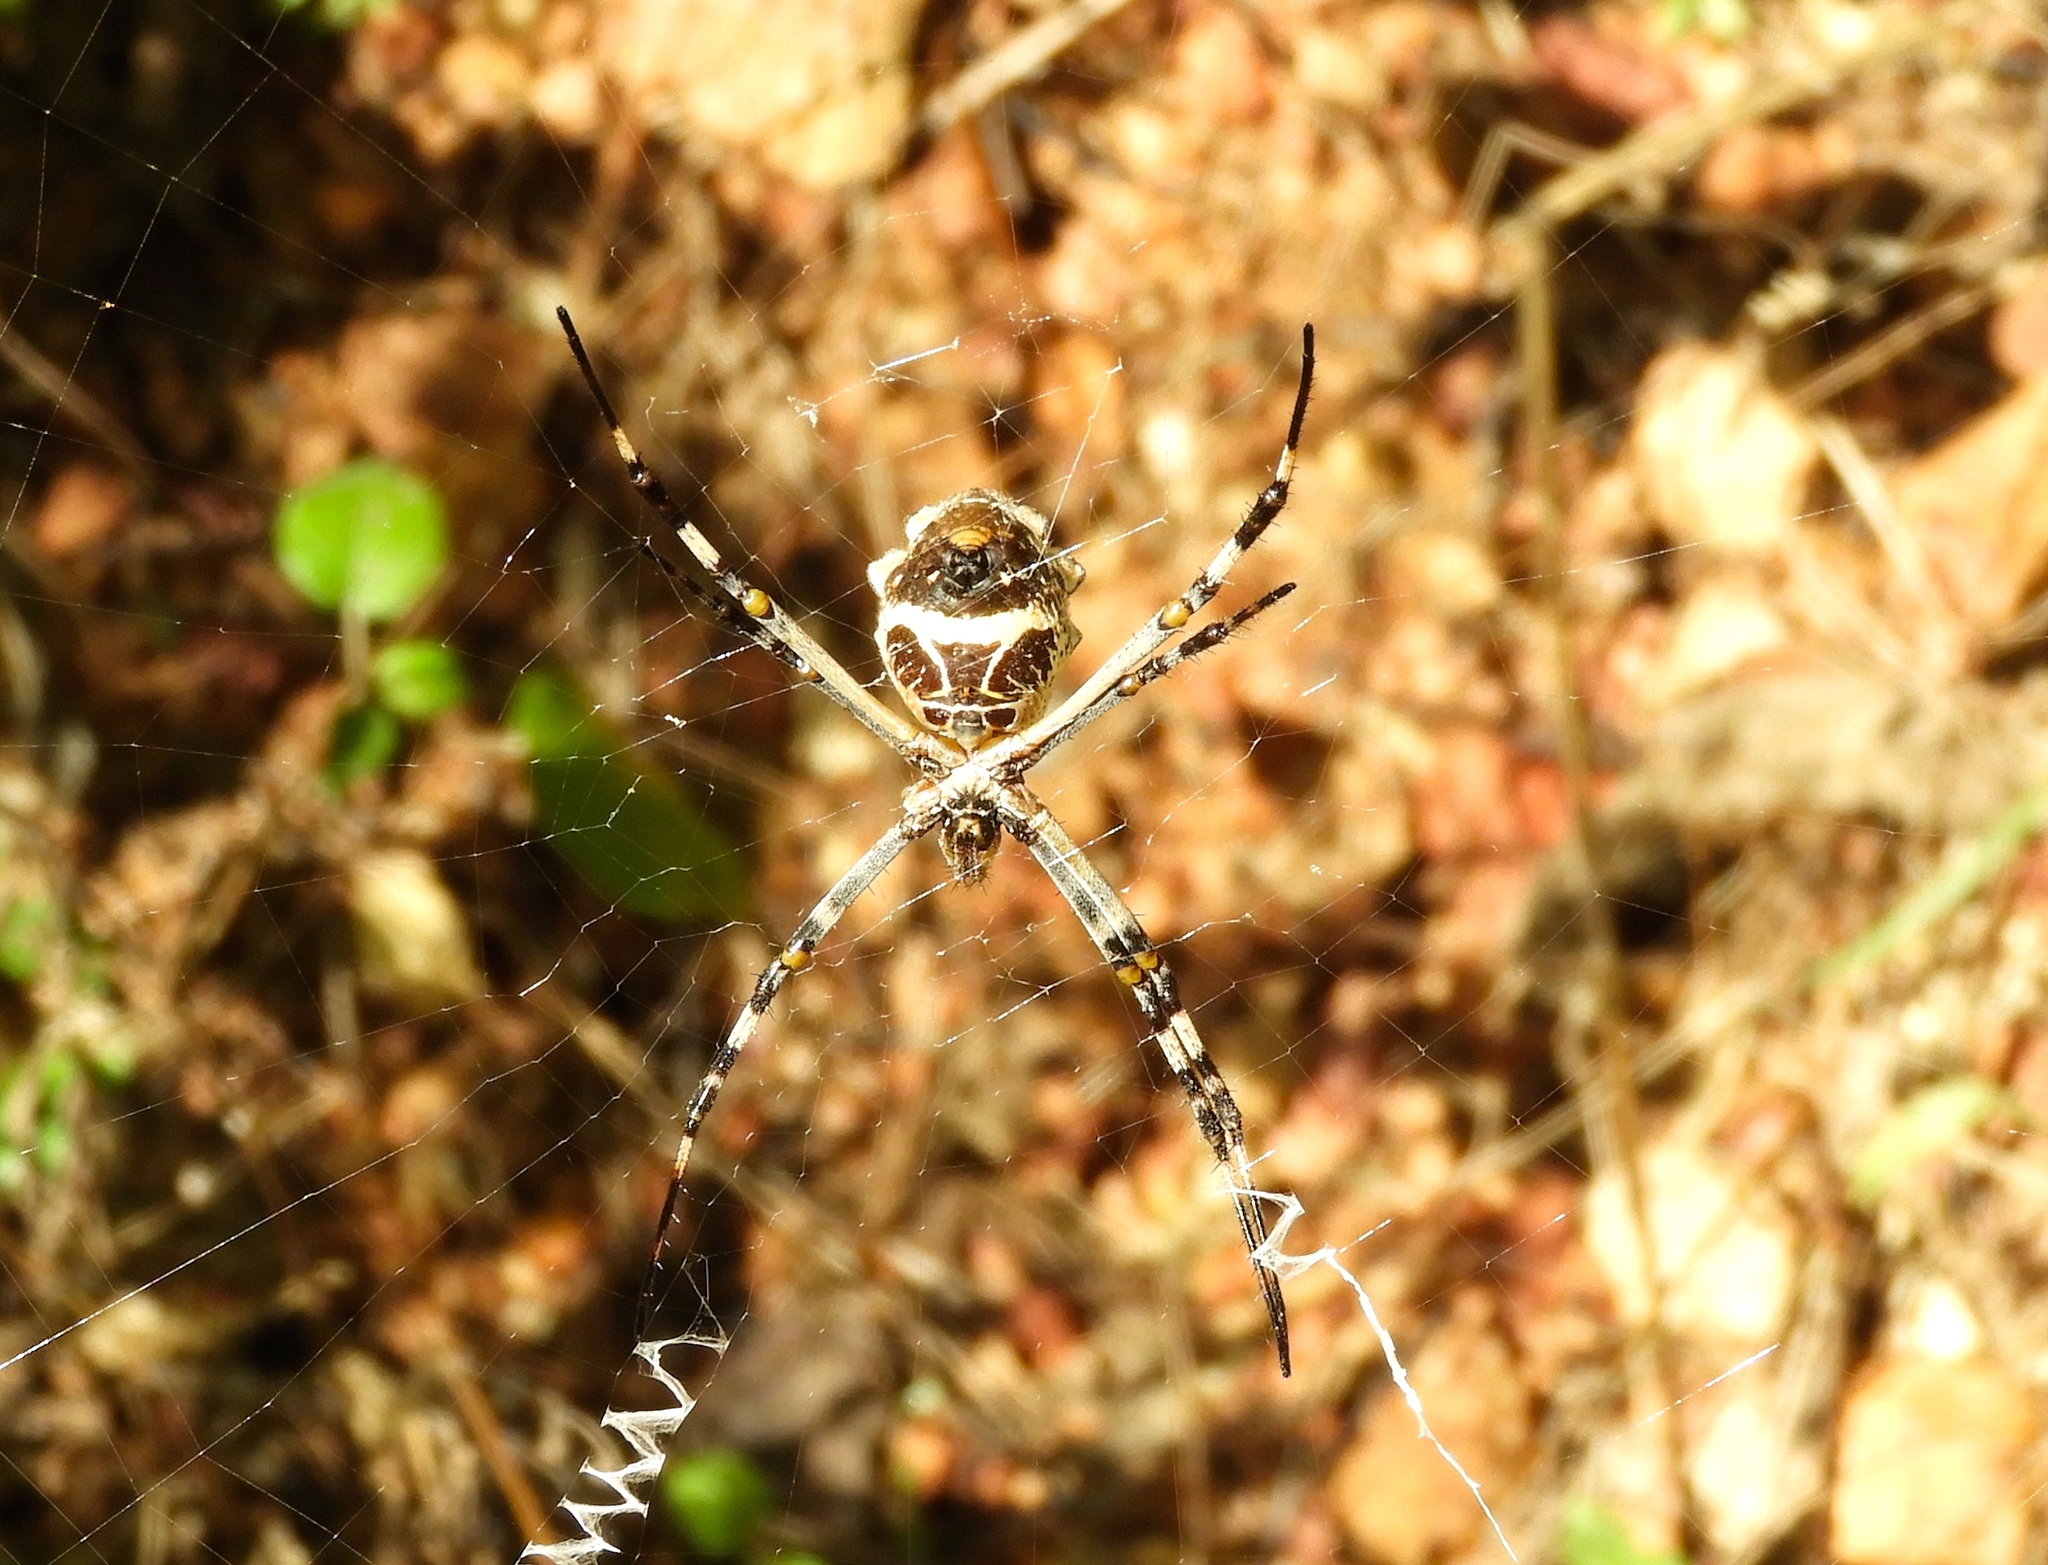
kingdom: Animalia
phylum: Arthropoda
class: Arachnida
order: Araneae
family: Araneidae
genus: Argiope
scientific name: Argiope argentata
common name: Orb weavers
